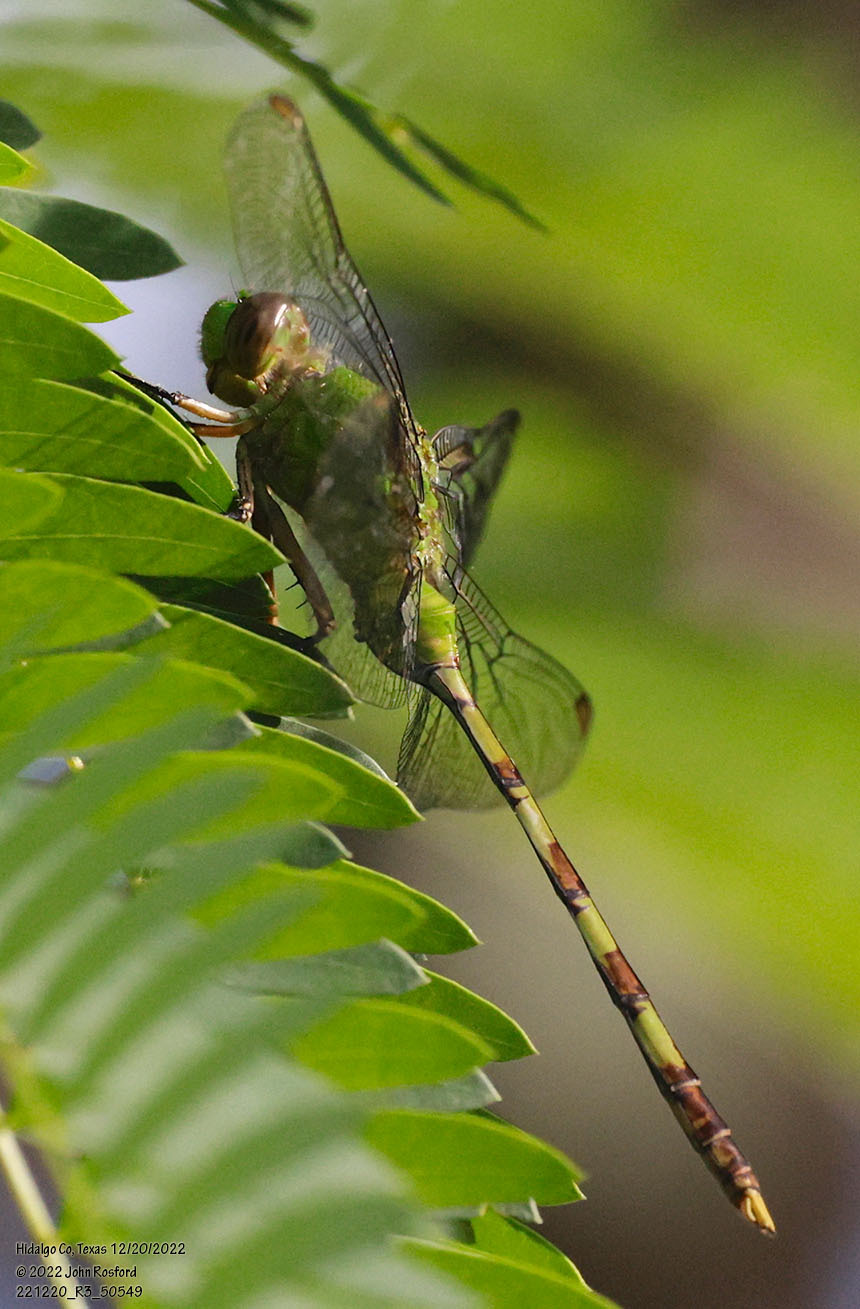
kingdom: Animalia
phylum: Arthropoda
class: Insecta
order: Odonata
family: Libellulidae
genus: Erythemis
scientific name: Erythemis vesiculosa
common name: Great pondhawk
